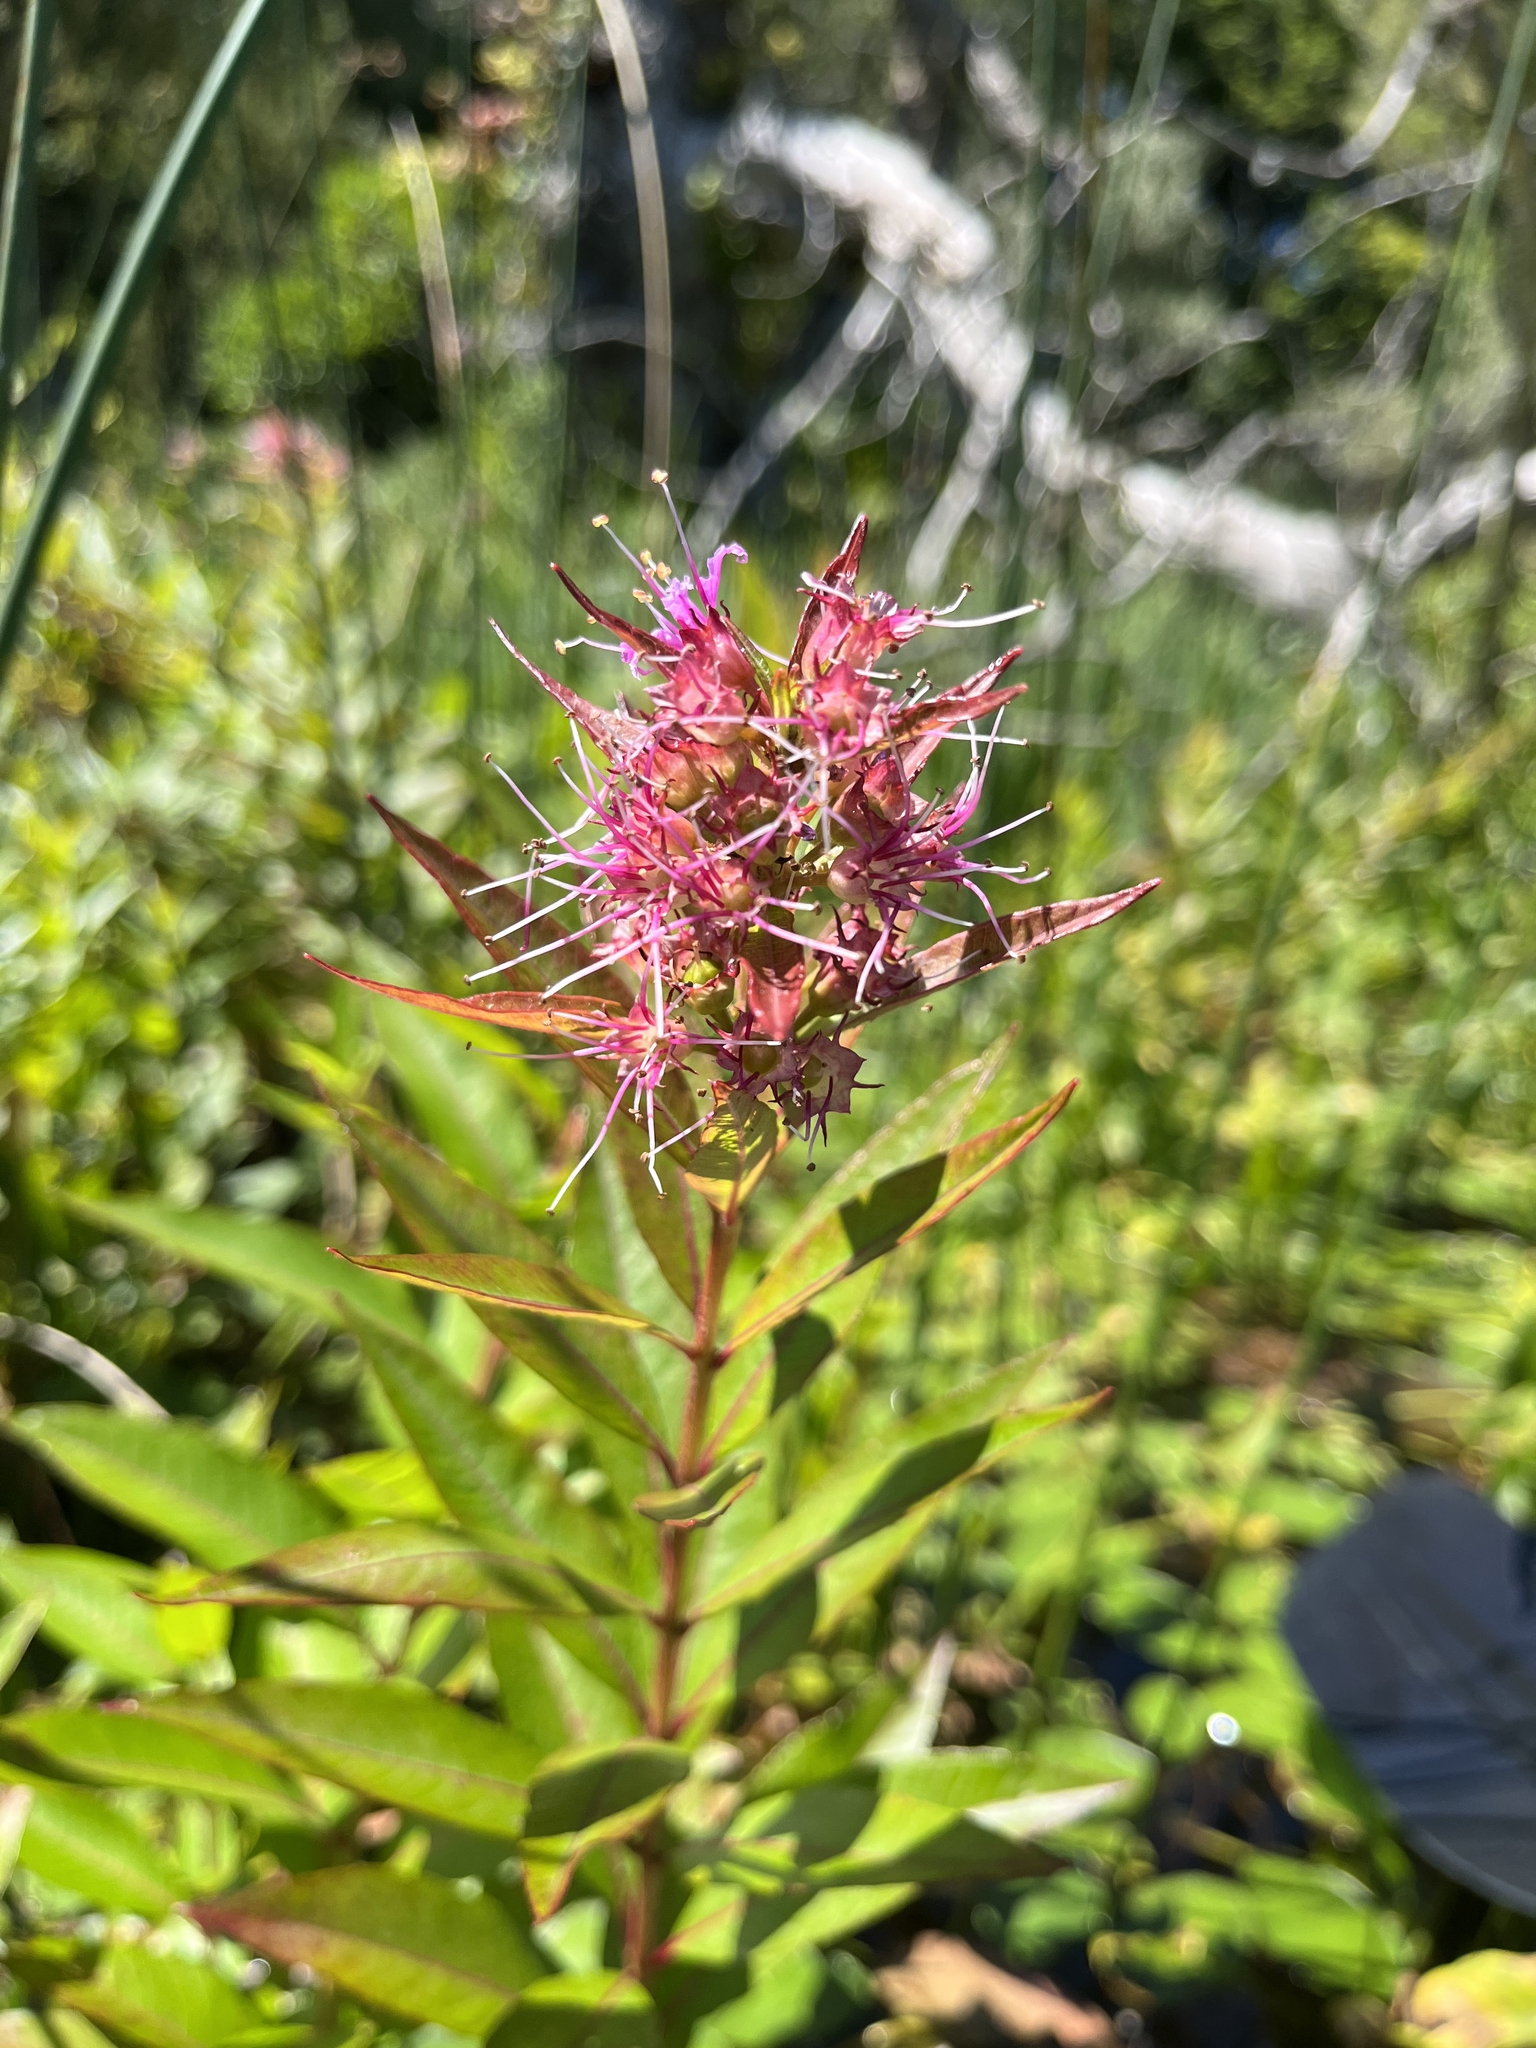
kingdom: Plantae
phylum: Tracheophyta
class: Magnoliopsida
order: Myrtales
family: Lythraceae
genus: Decodon
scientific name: Decodon verticillatus
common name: Hairy swamp loosestrife
